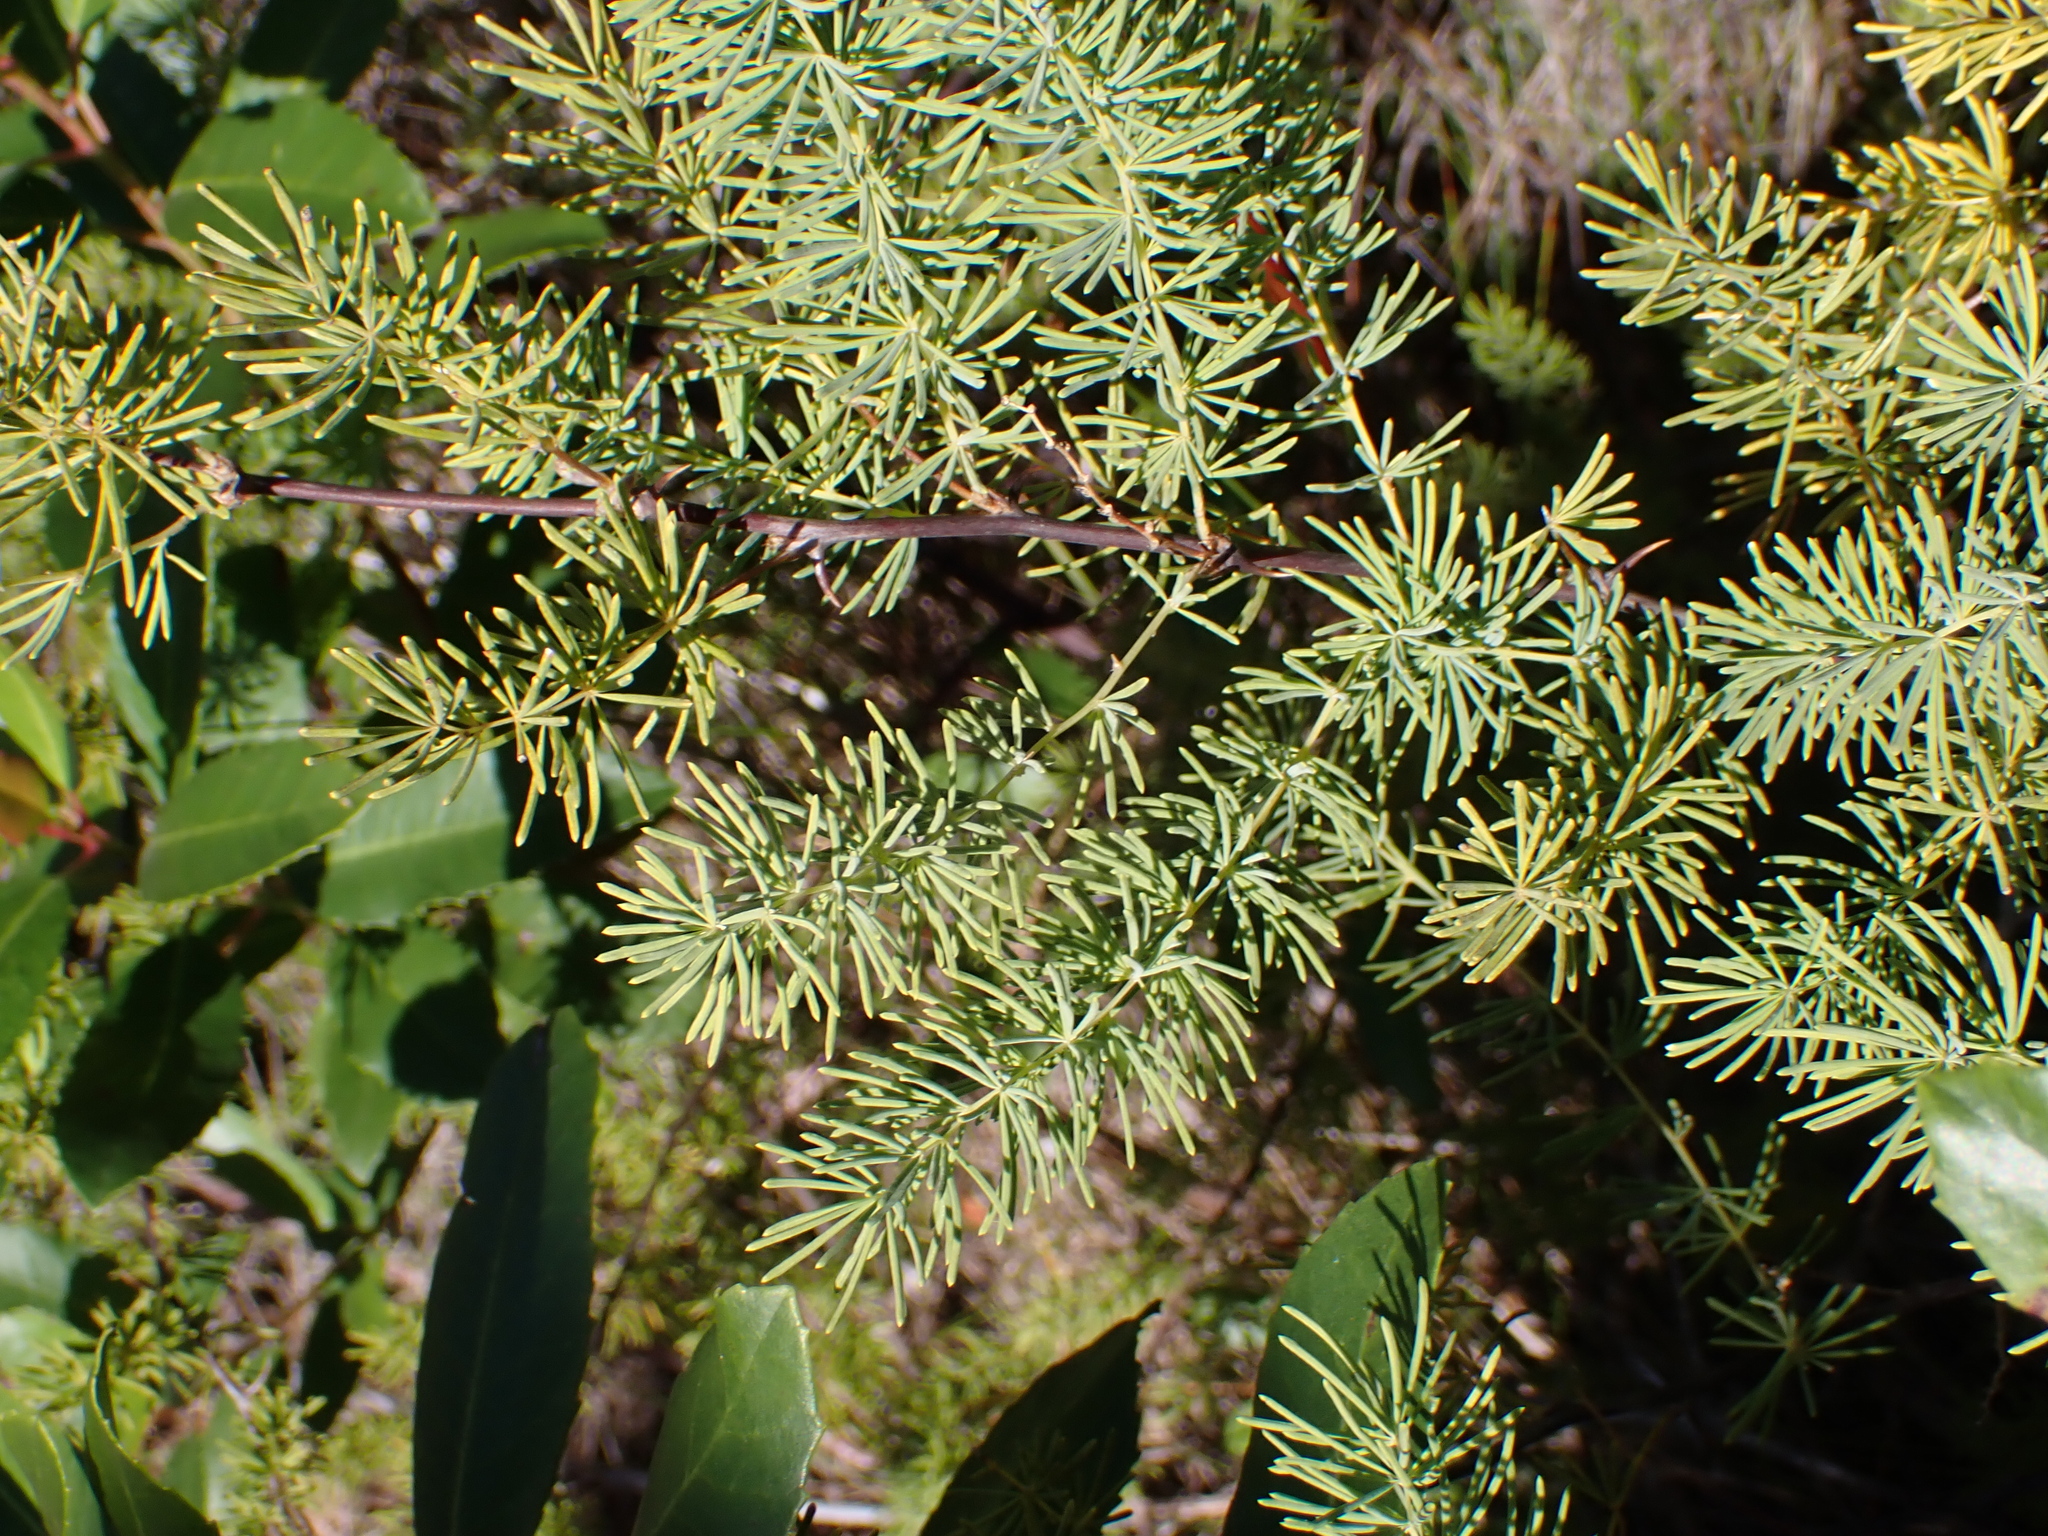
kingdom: Plantae
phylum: Tracheophyta
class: Liliopsida
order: Asparagales
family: Asparagaceae
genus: Asparagus
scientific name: Asparagus rubicundus
